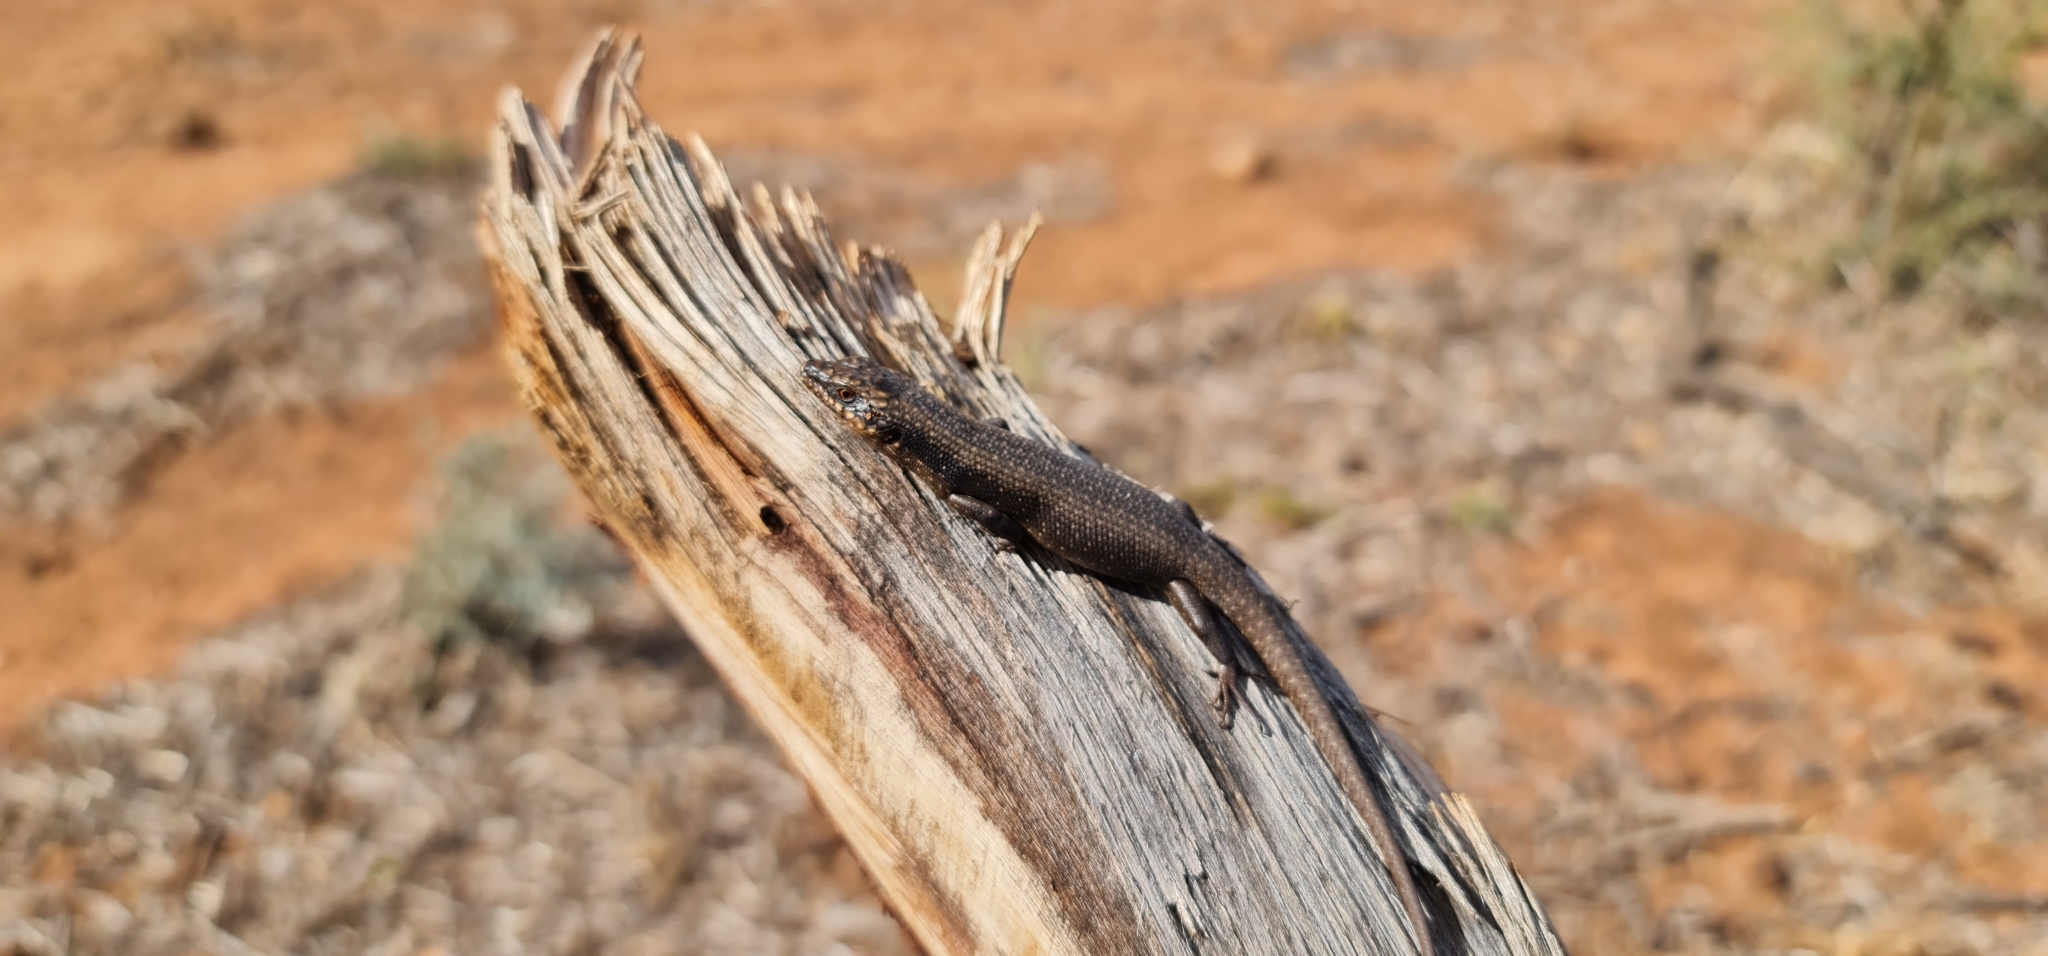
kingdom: Animalia
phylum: Chordata
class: Squamata
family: Scincidae
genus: Egernia
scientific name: Egernia striolata
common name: Tree skink
